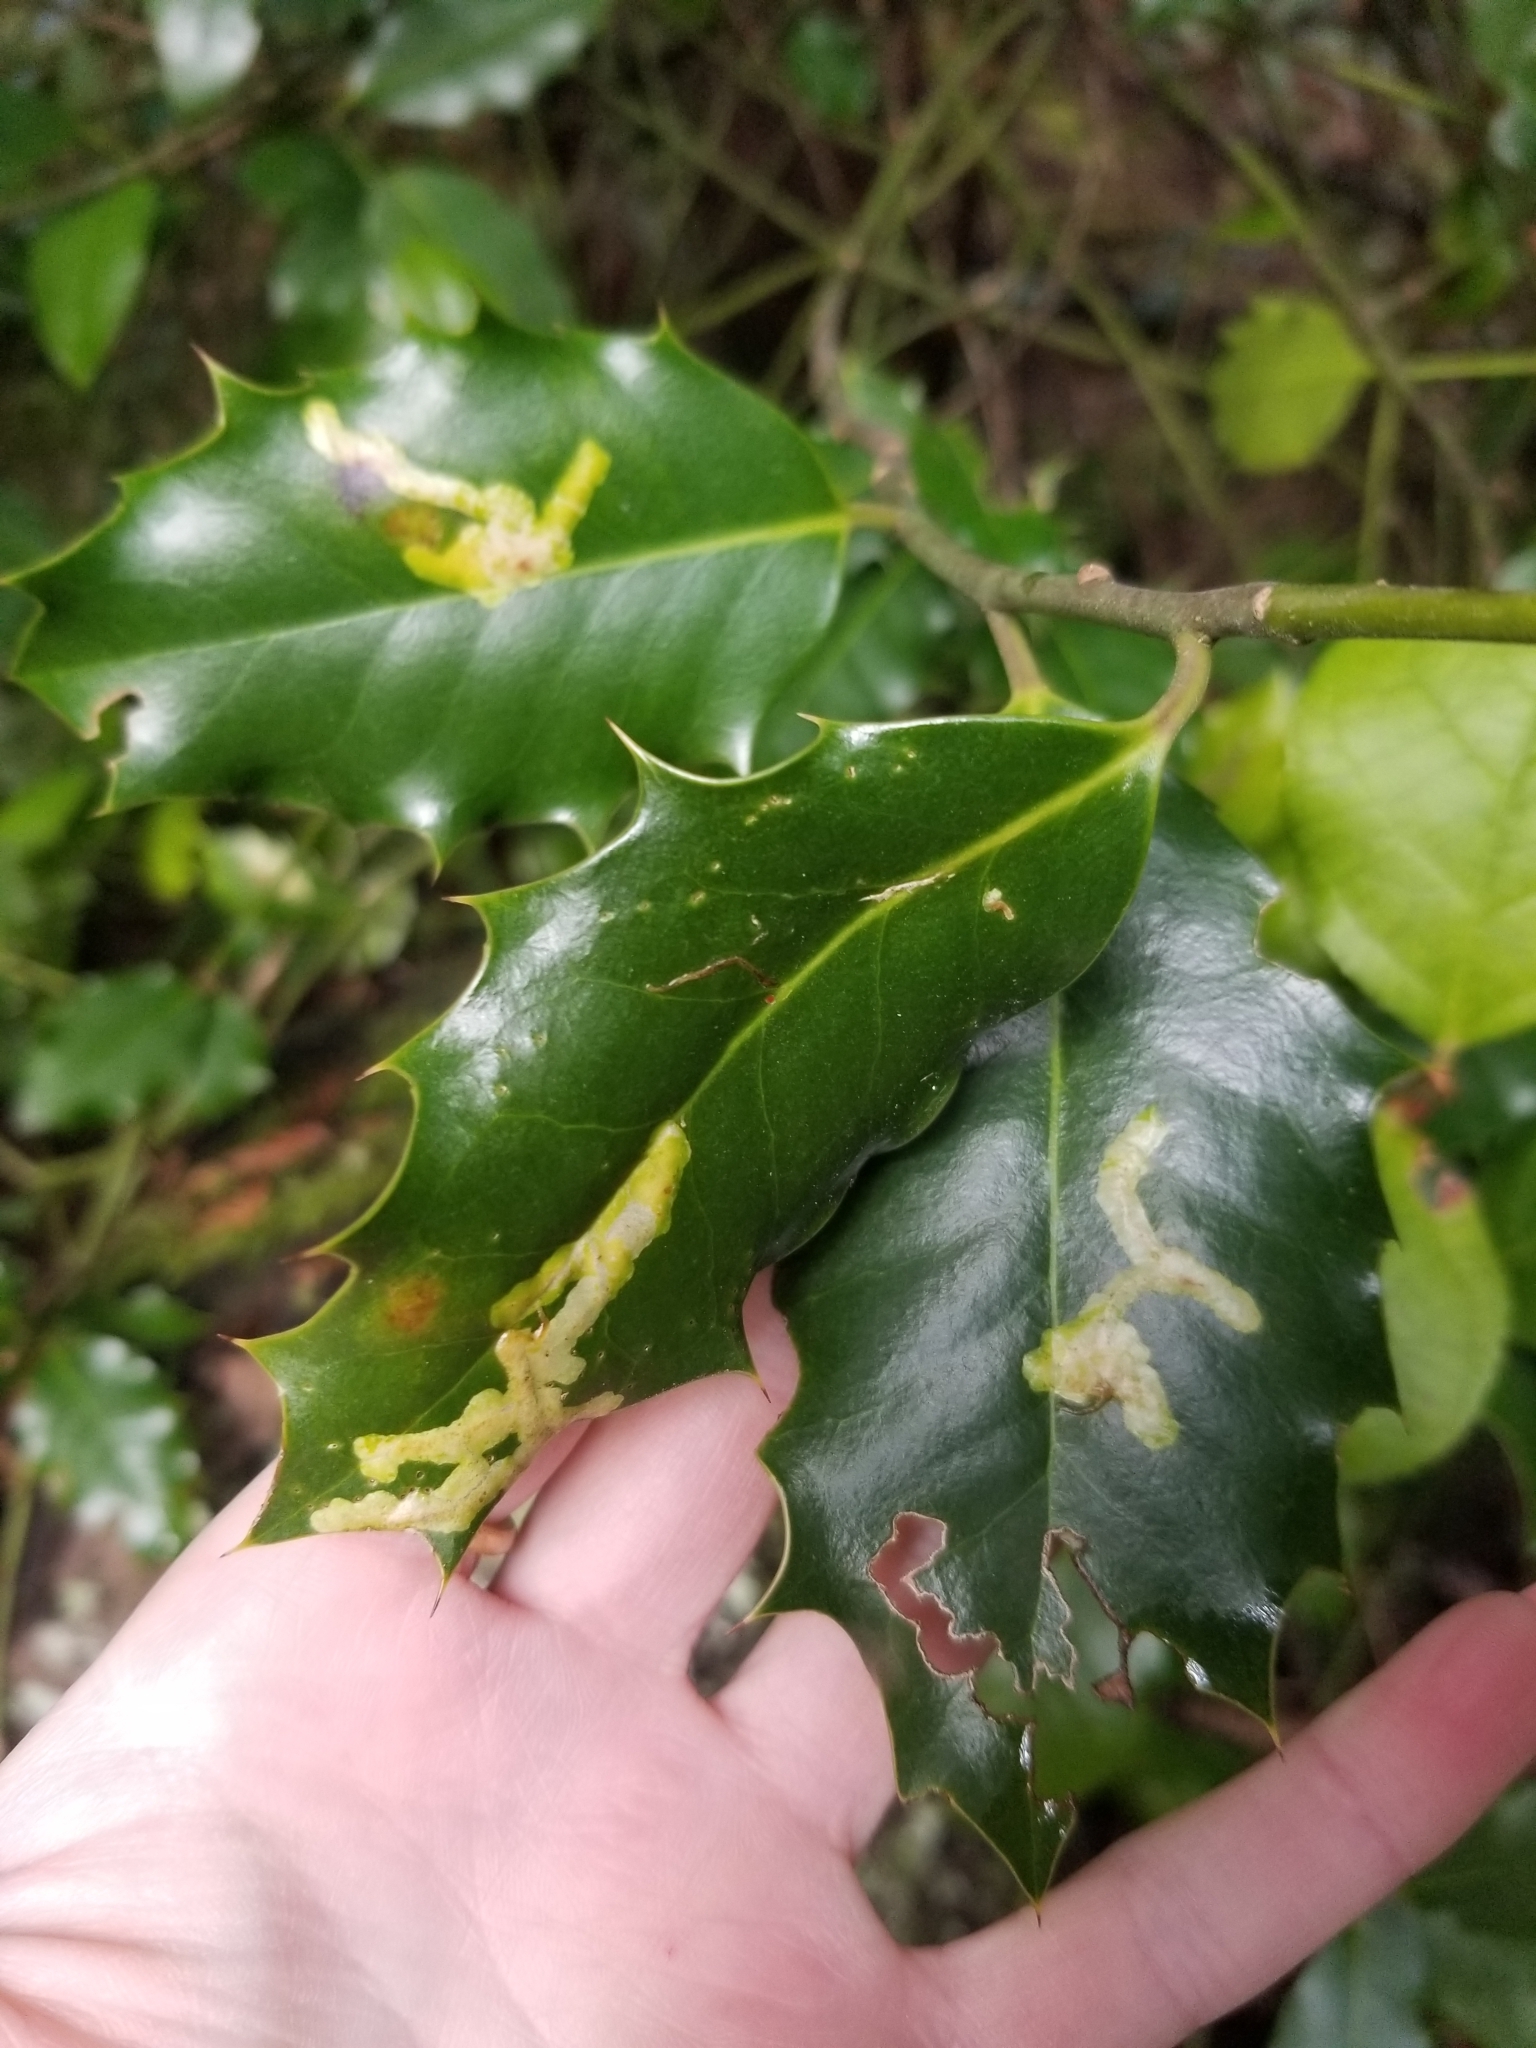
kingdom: Animalia
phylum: Arthropoda
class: Insecta
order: Diptera
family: Agromyzidae
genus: Phytomyza
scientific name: Phytomyza ilicis
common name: Holly leafminer
